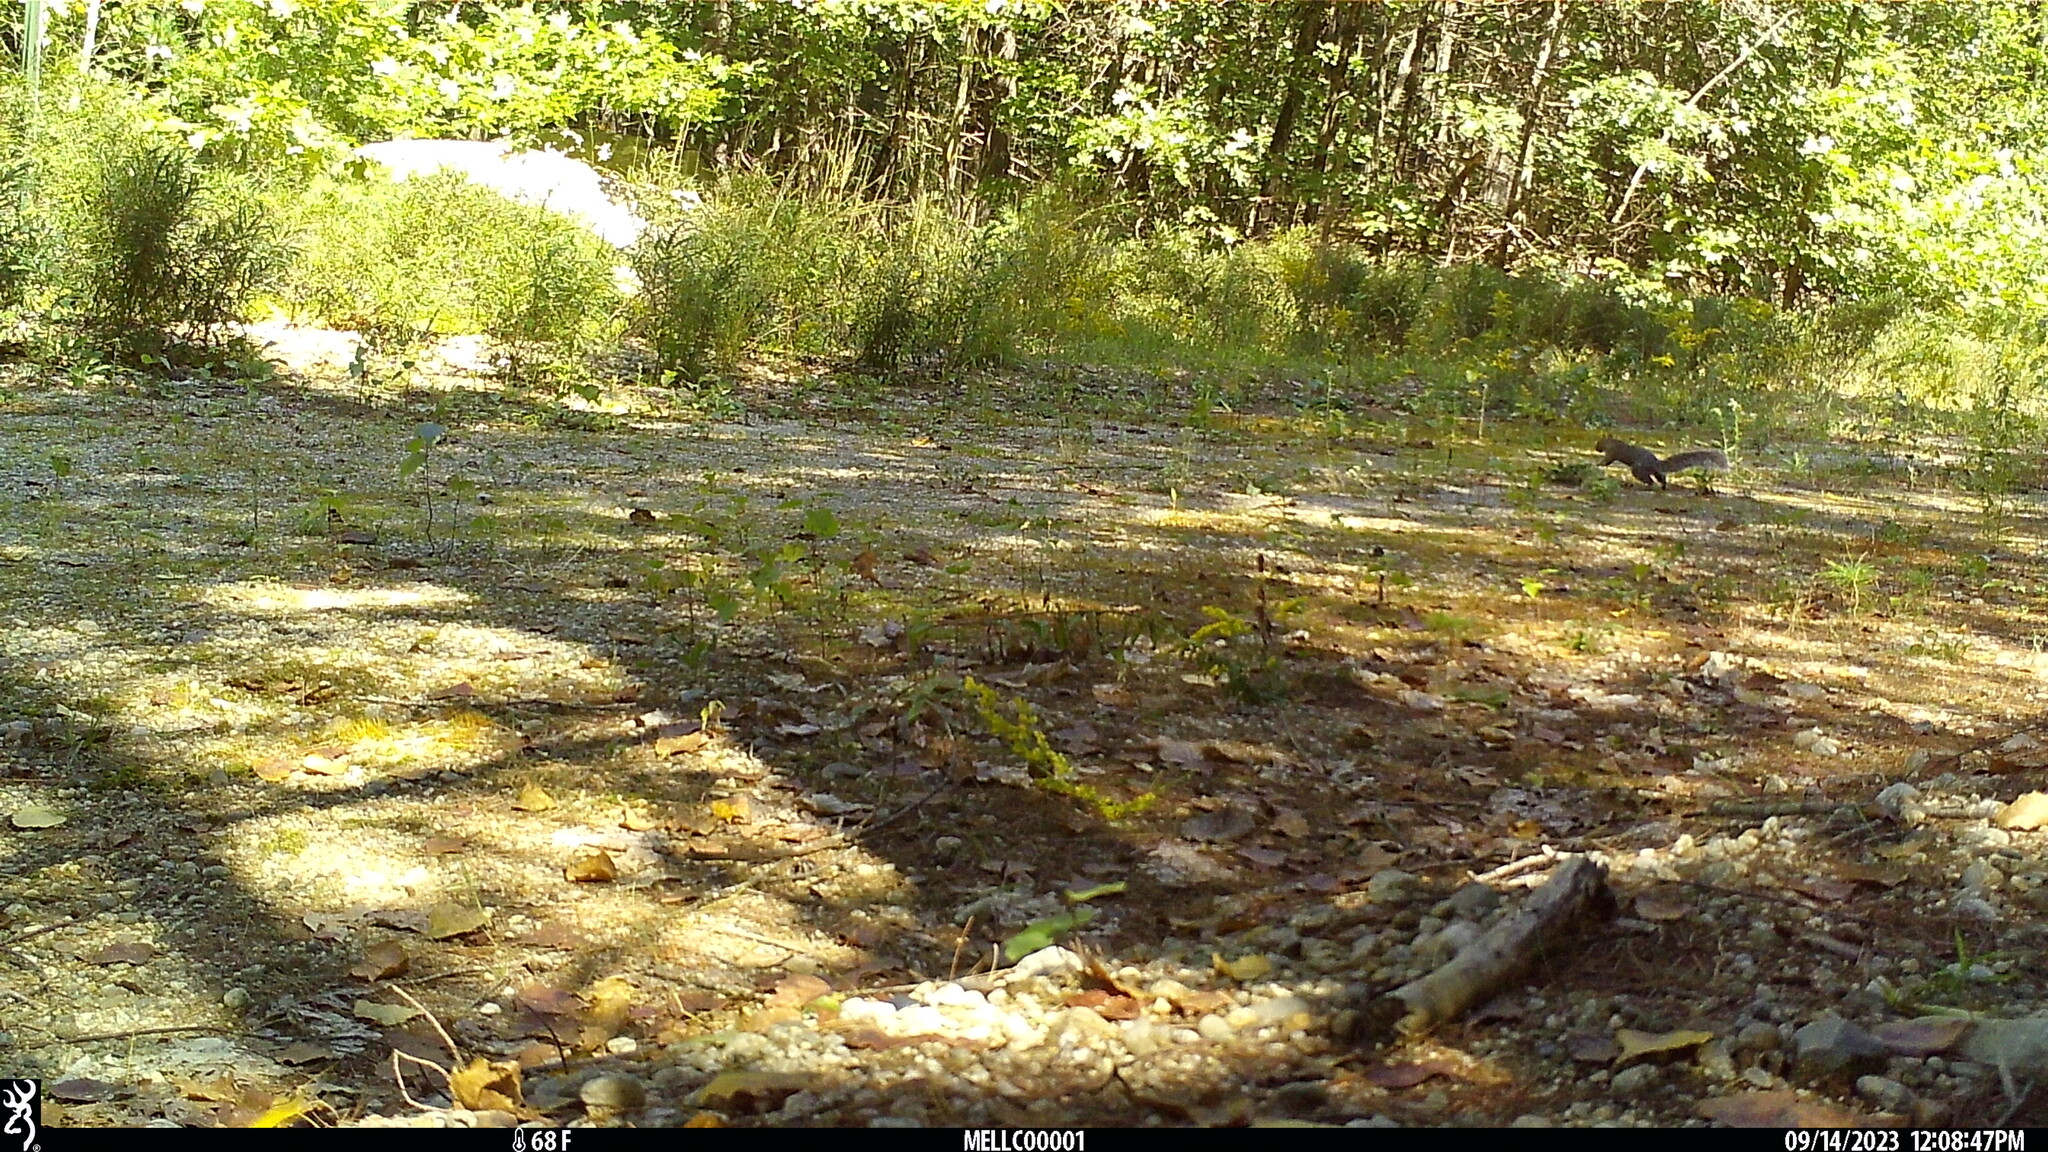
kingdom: Animalia
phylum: Chordata
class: Mammalia
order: Rodentia
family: Sciuridae
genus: Sciurus
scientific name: Sciurus carolinensis
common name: Eastern gray squirrel
